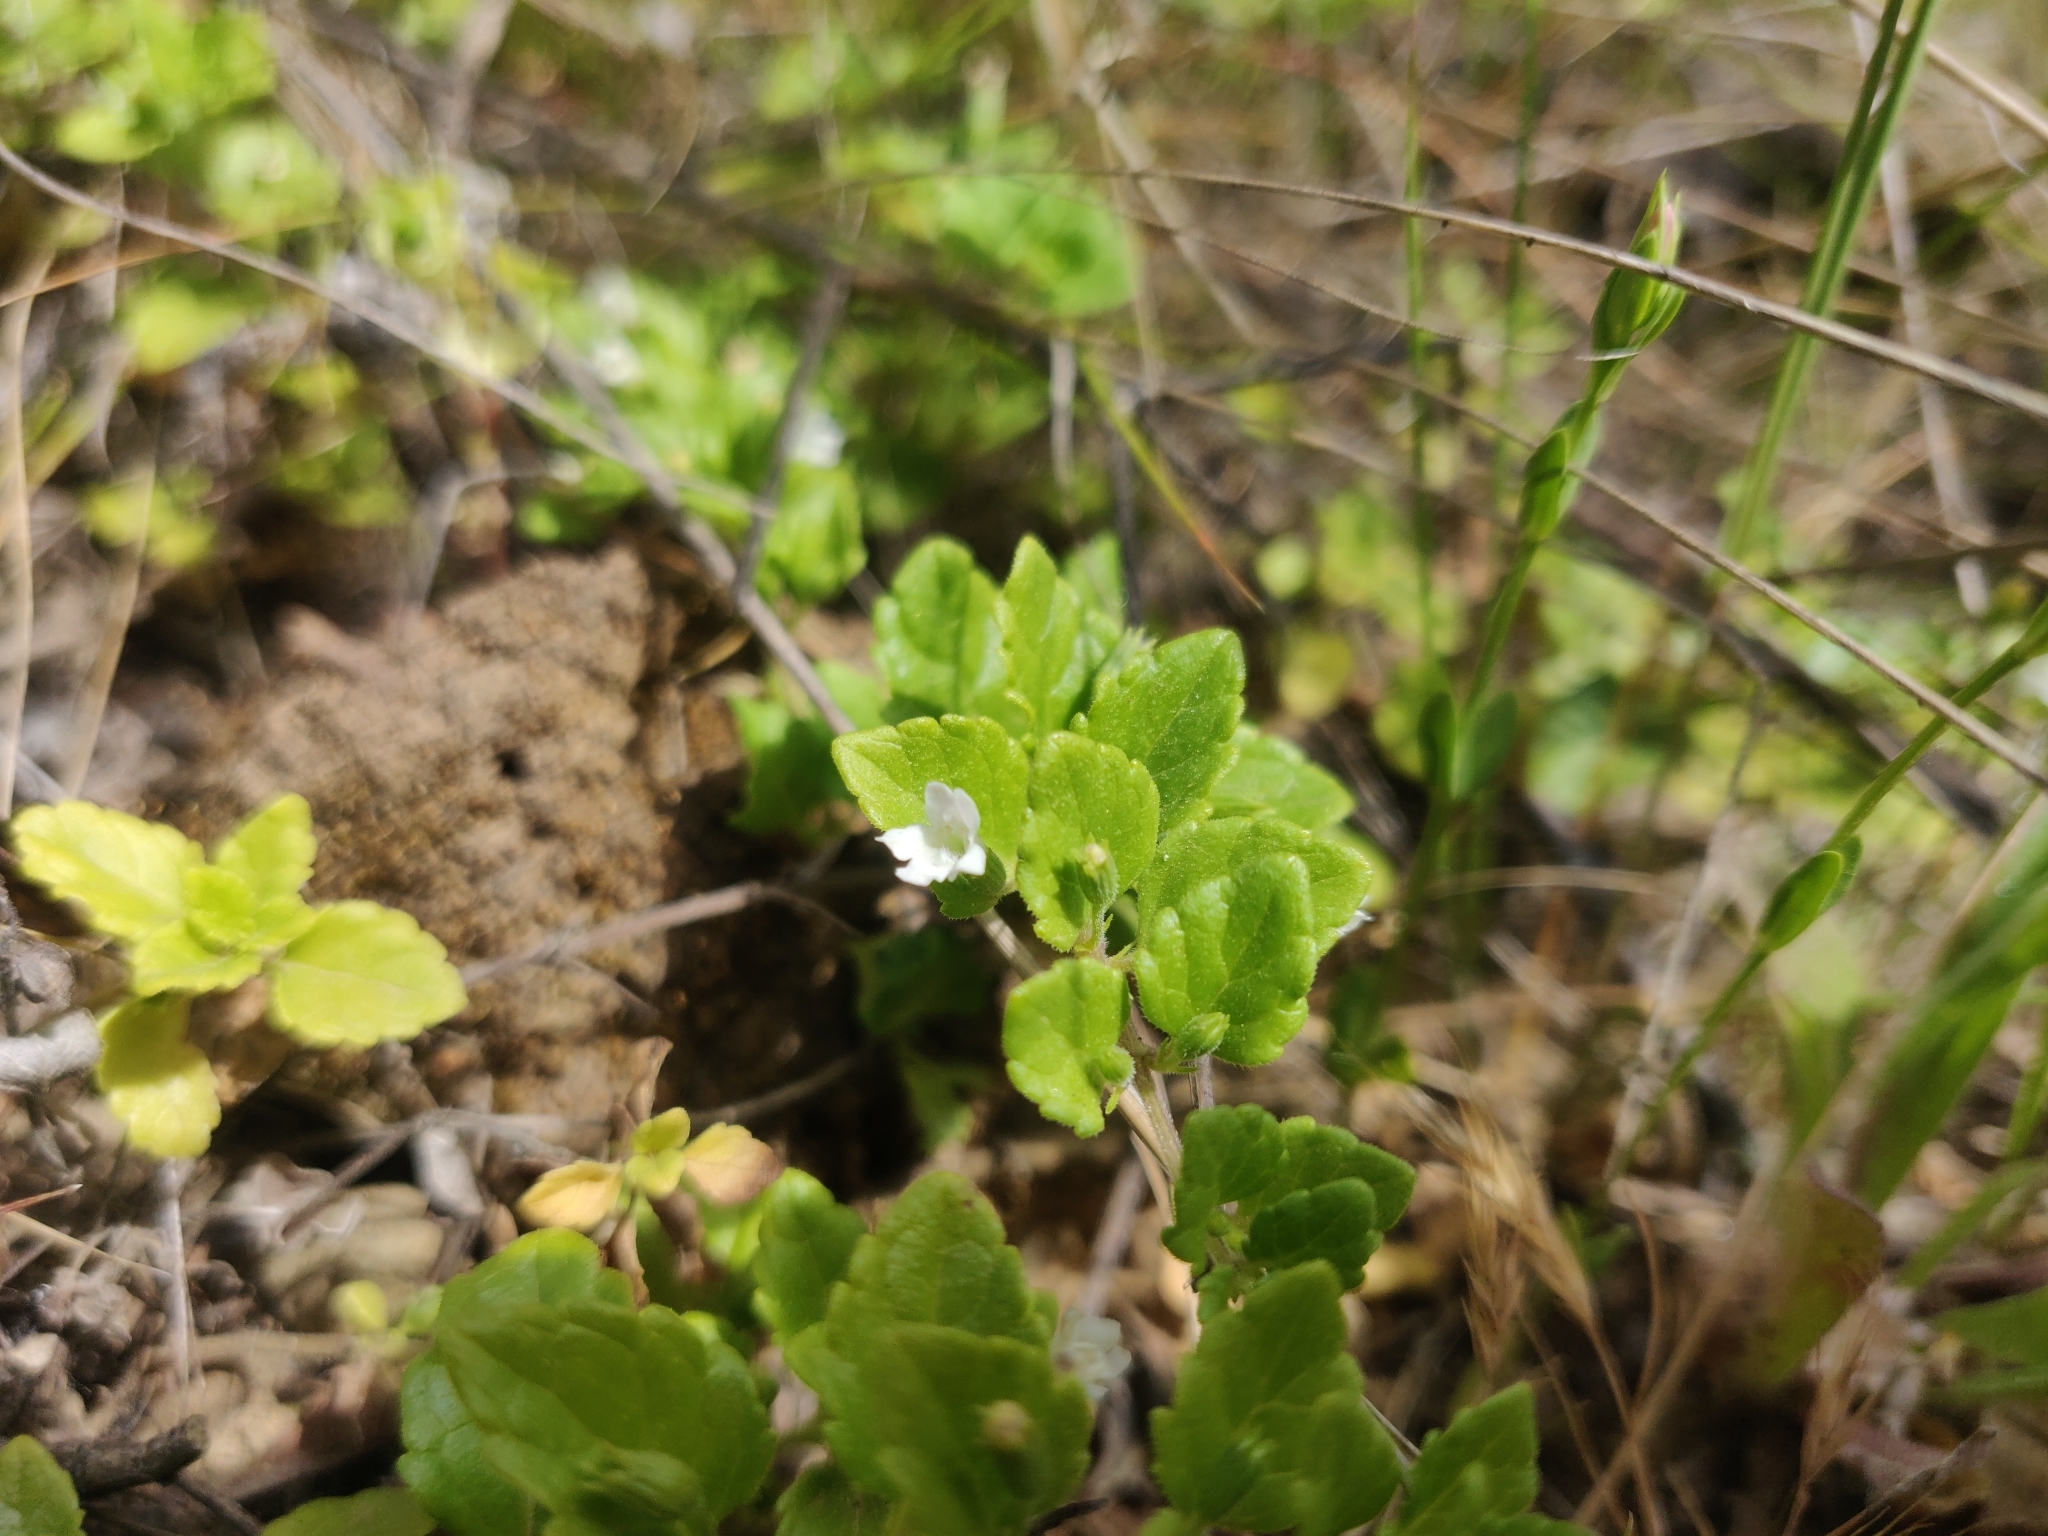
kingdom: Plantae
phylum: Tracheophyta
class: Magnoliopsida
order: Lamiales
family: Lamiaceae
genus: Micromeria
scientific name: Micromeria douglasii
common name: Yerba buena
